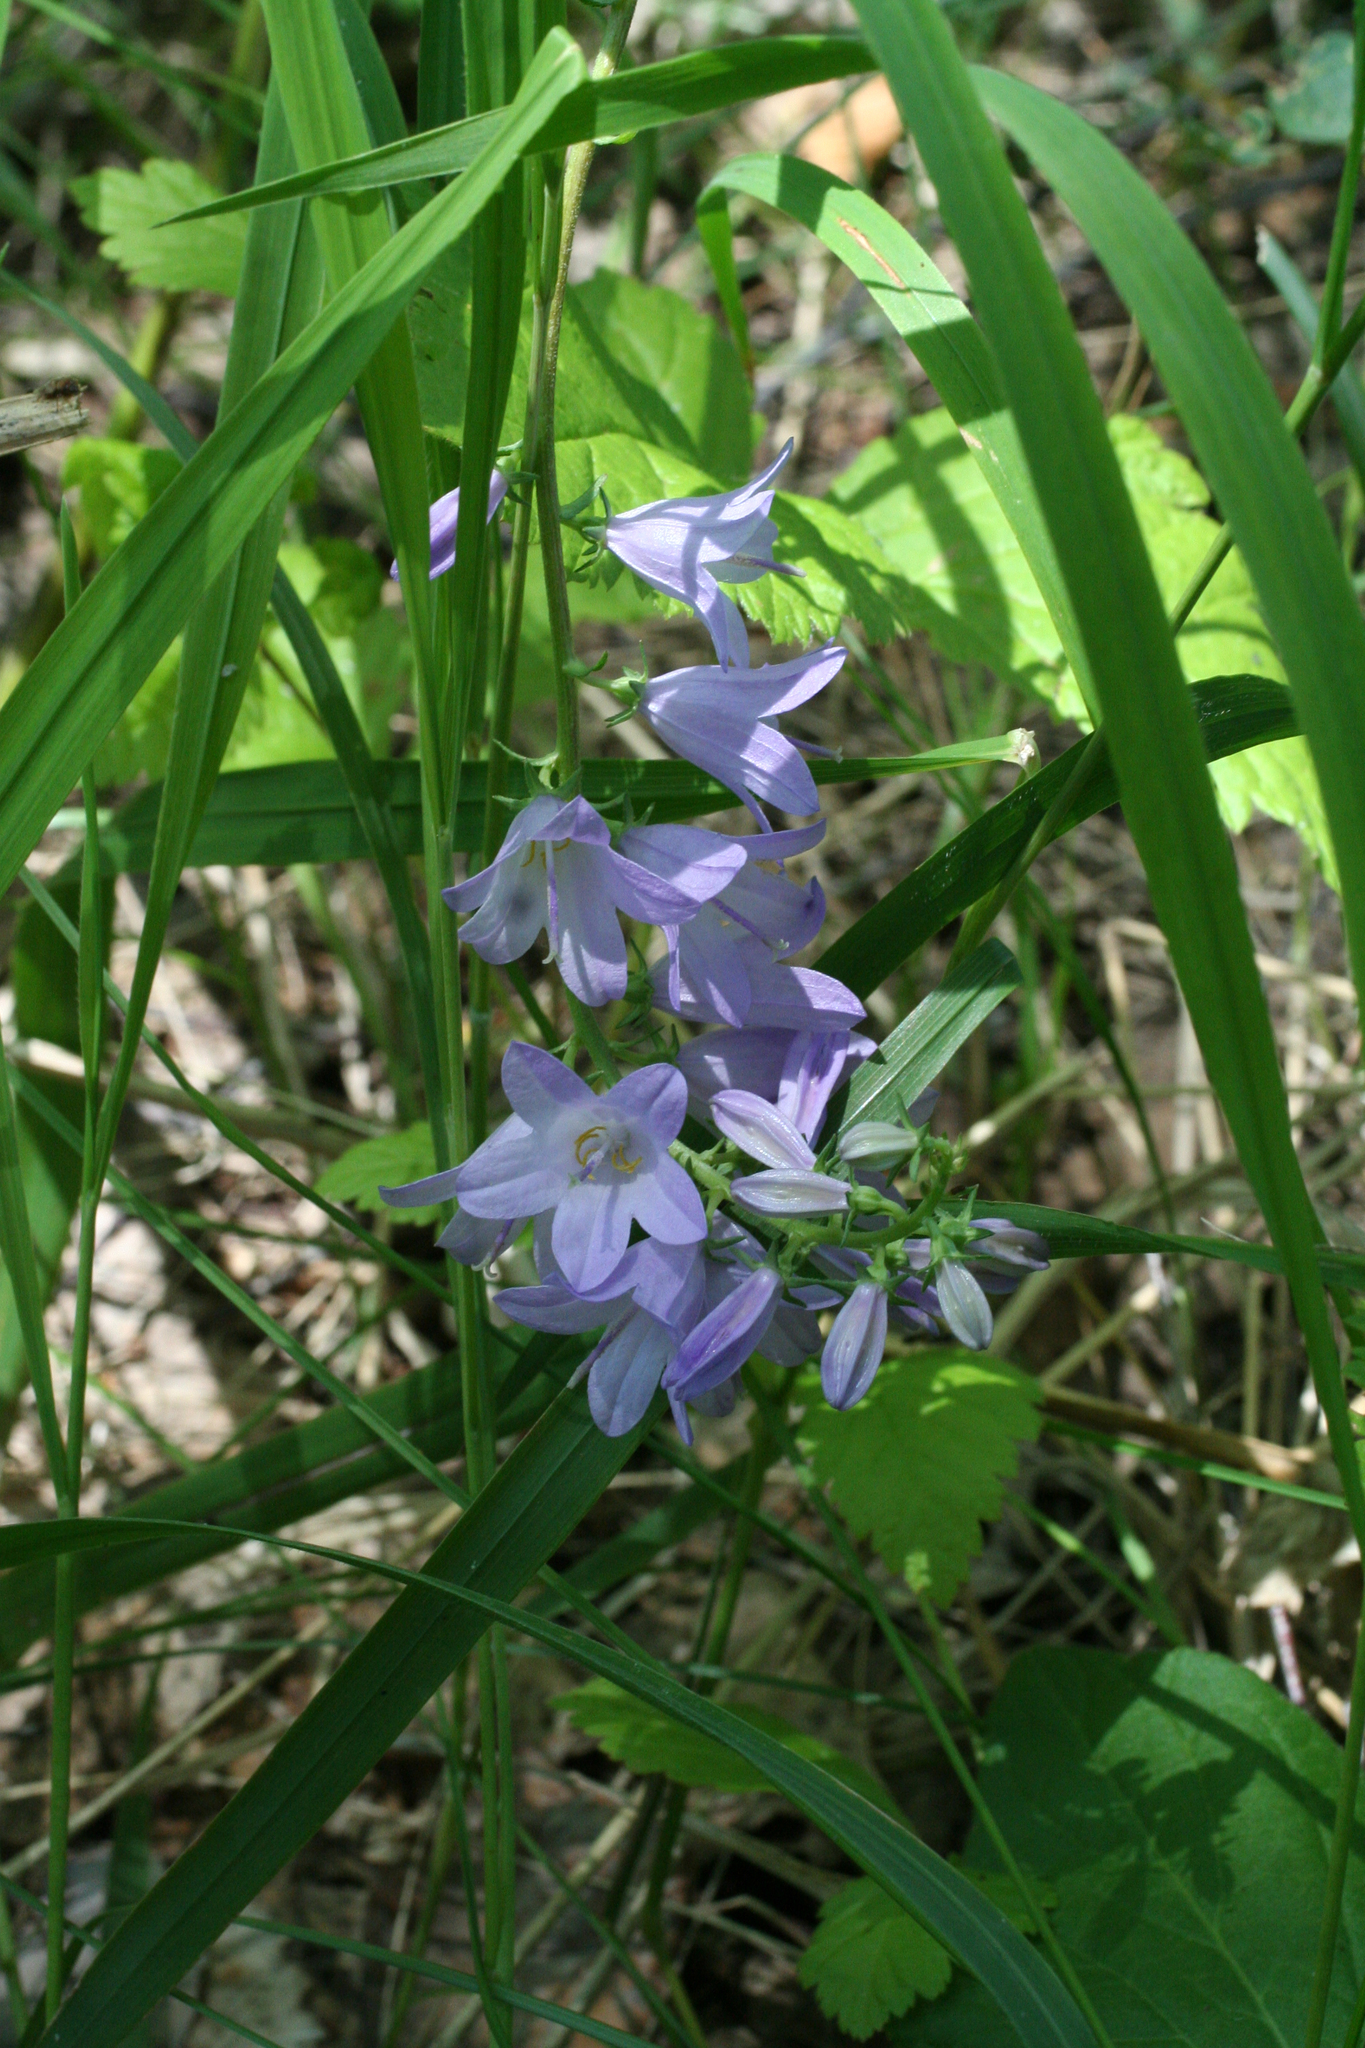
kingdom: Plantae
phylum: Tracheophyta
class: Magnoliopsida
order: Asterales
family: Campanulaceae
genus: Campanula
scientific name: Campanula bononiensis
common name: Pale bellflower
